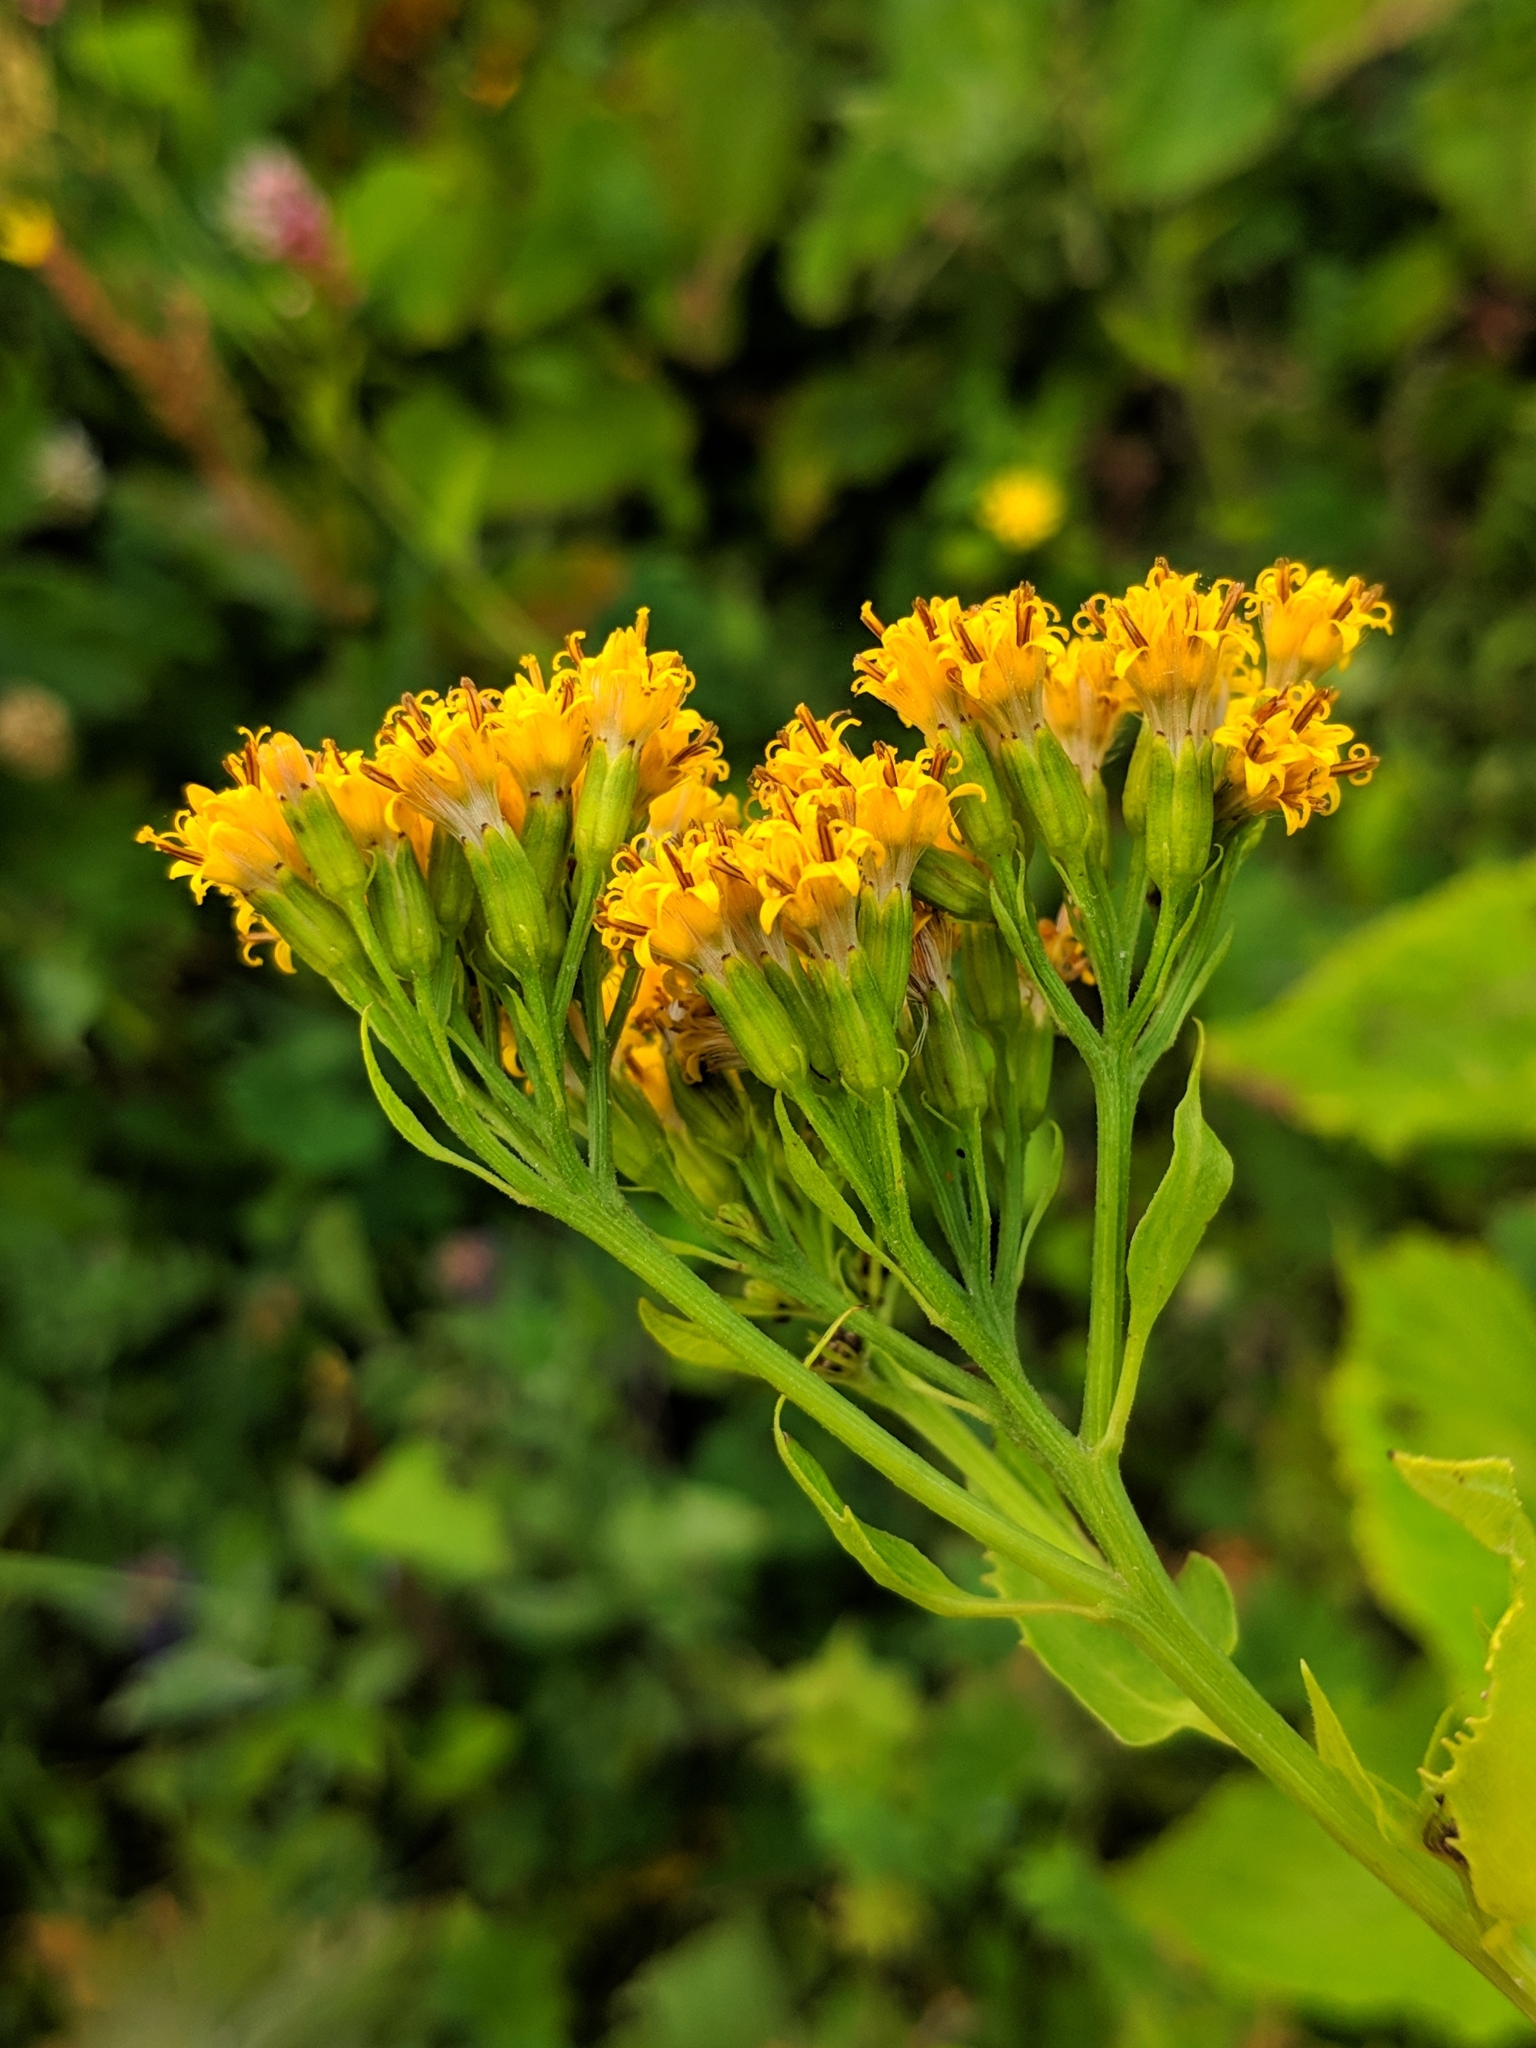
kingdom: Plantae
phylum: Tracheophyta
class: Magnoliopsida
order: Asterales
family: Asteraceae
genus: Caucasalia
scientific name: Caucasalia macrophylla
